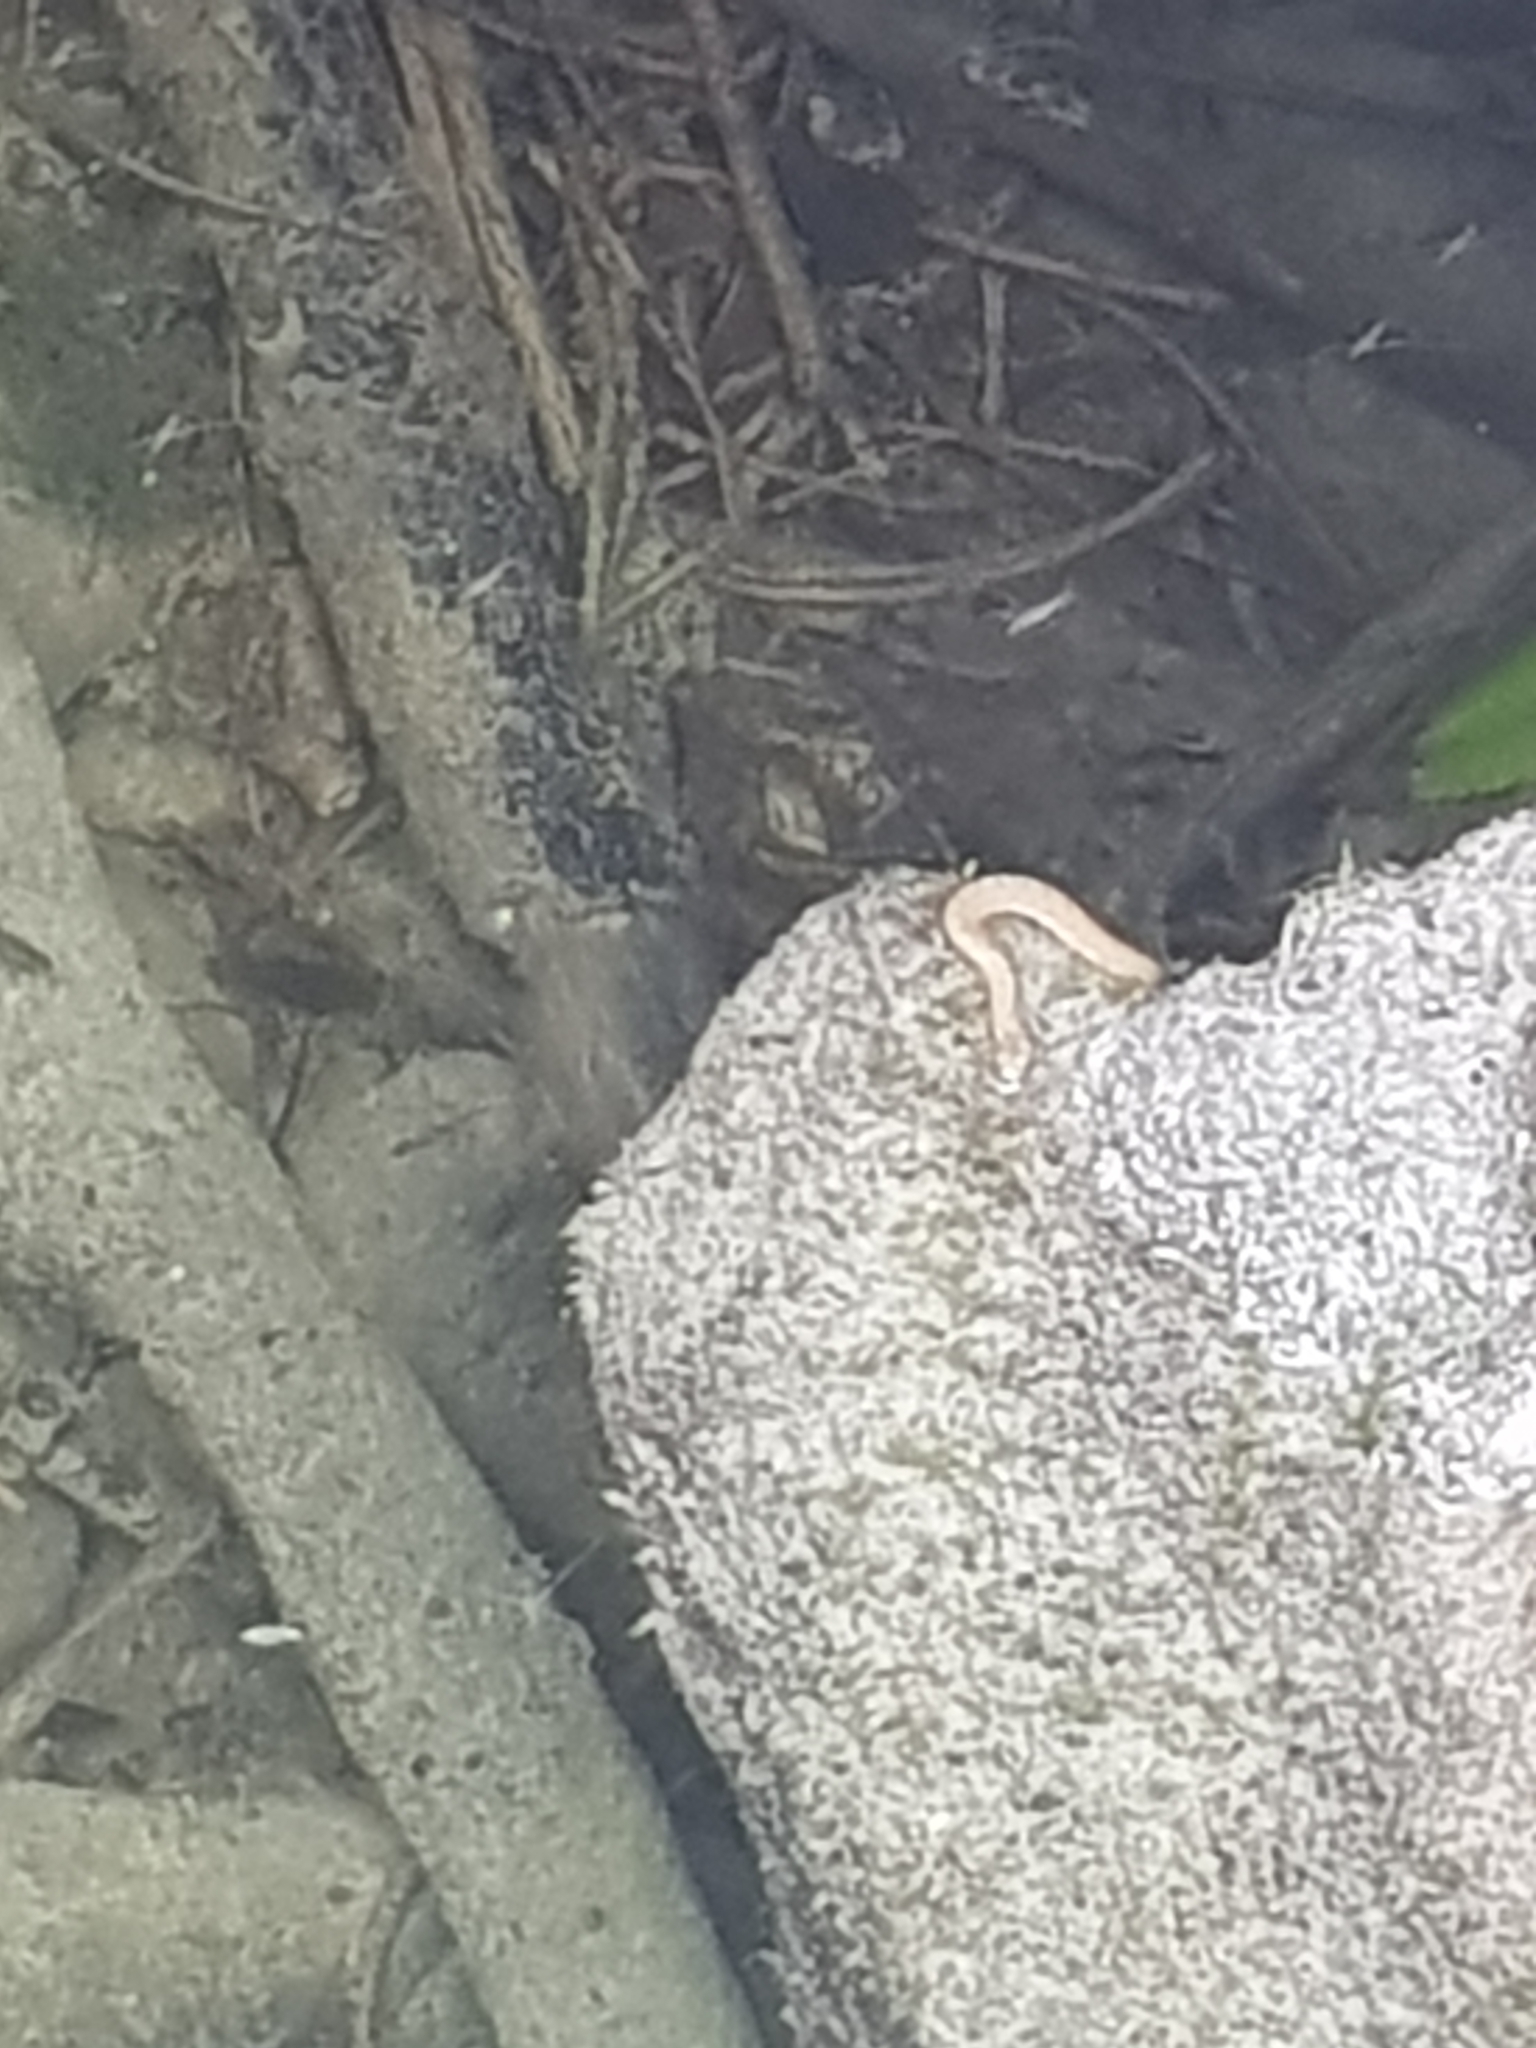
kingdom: Animalia
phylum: Chordata
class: Squamata
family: Colubridae
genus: Natrix
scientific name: Natrix maura
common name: Viperine water snake
